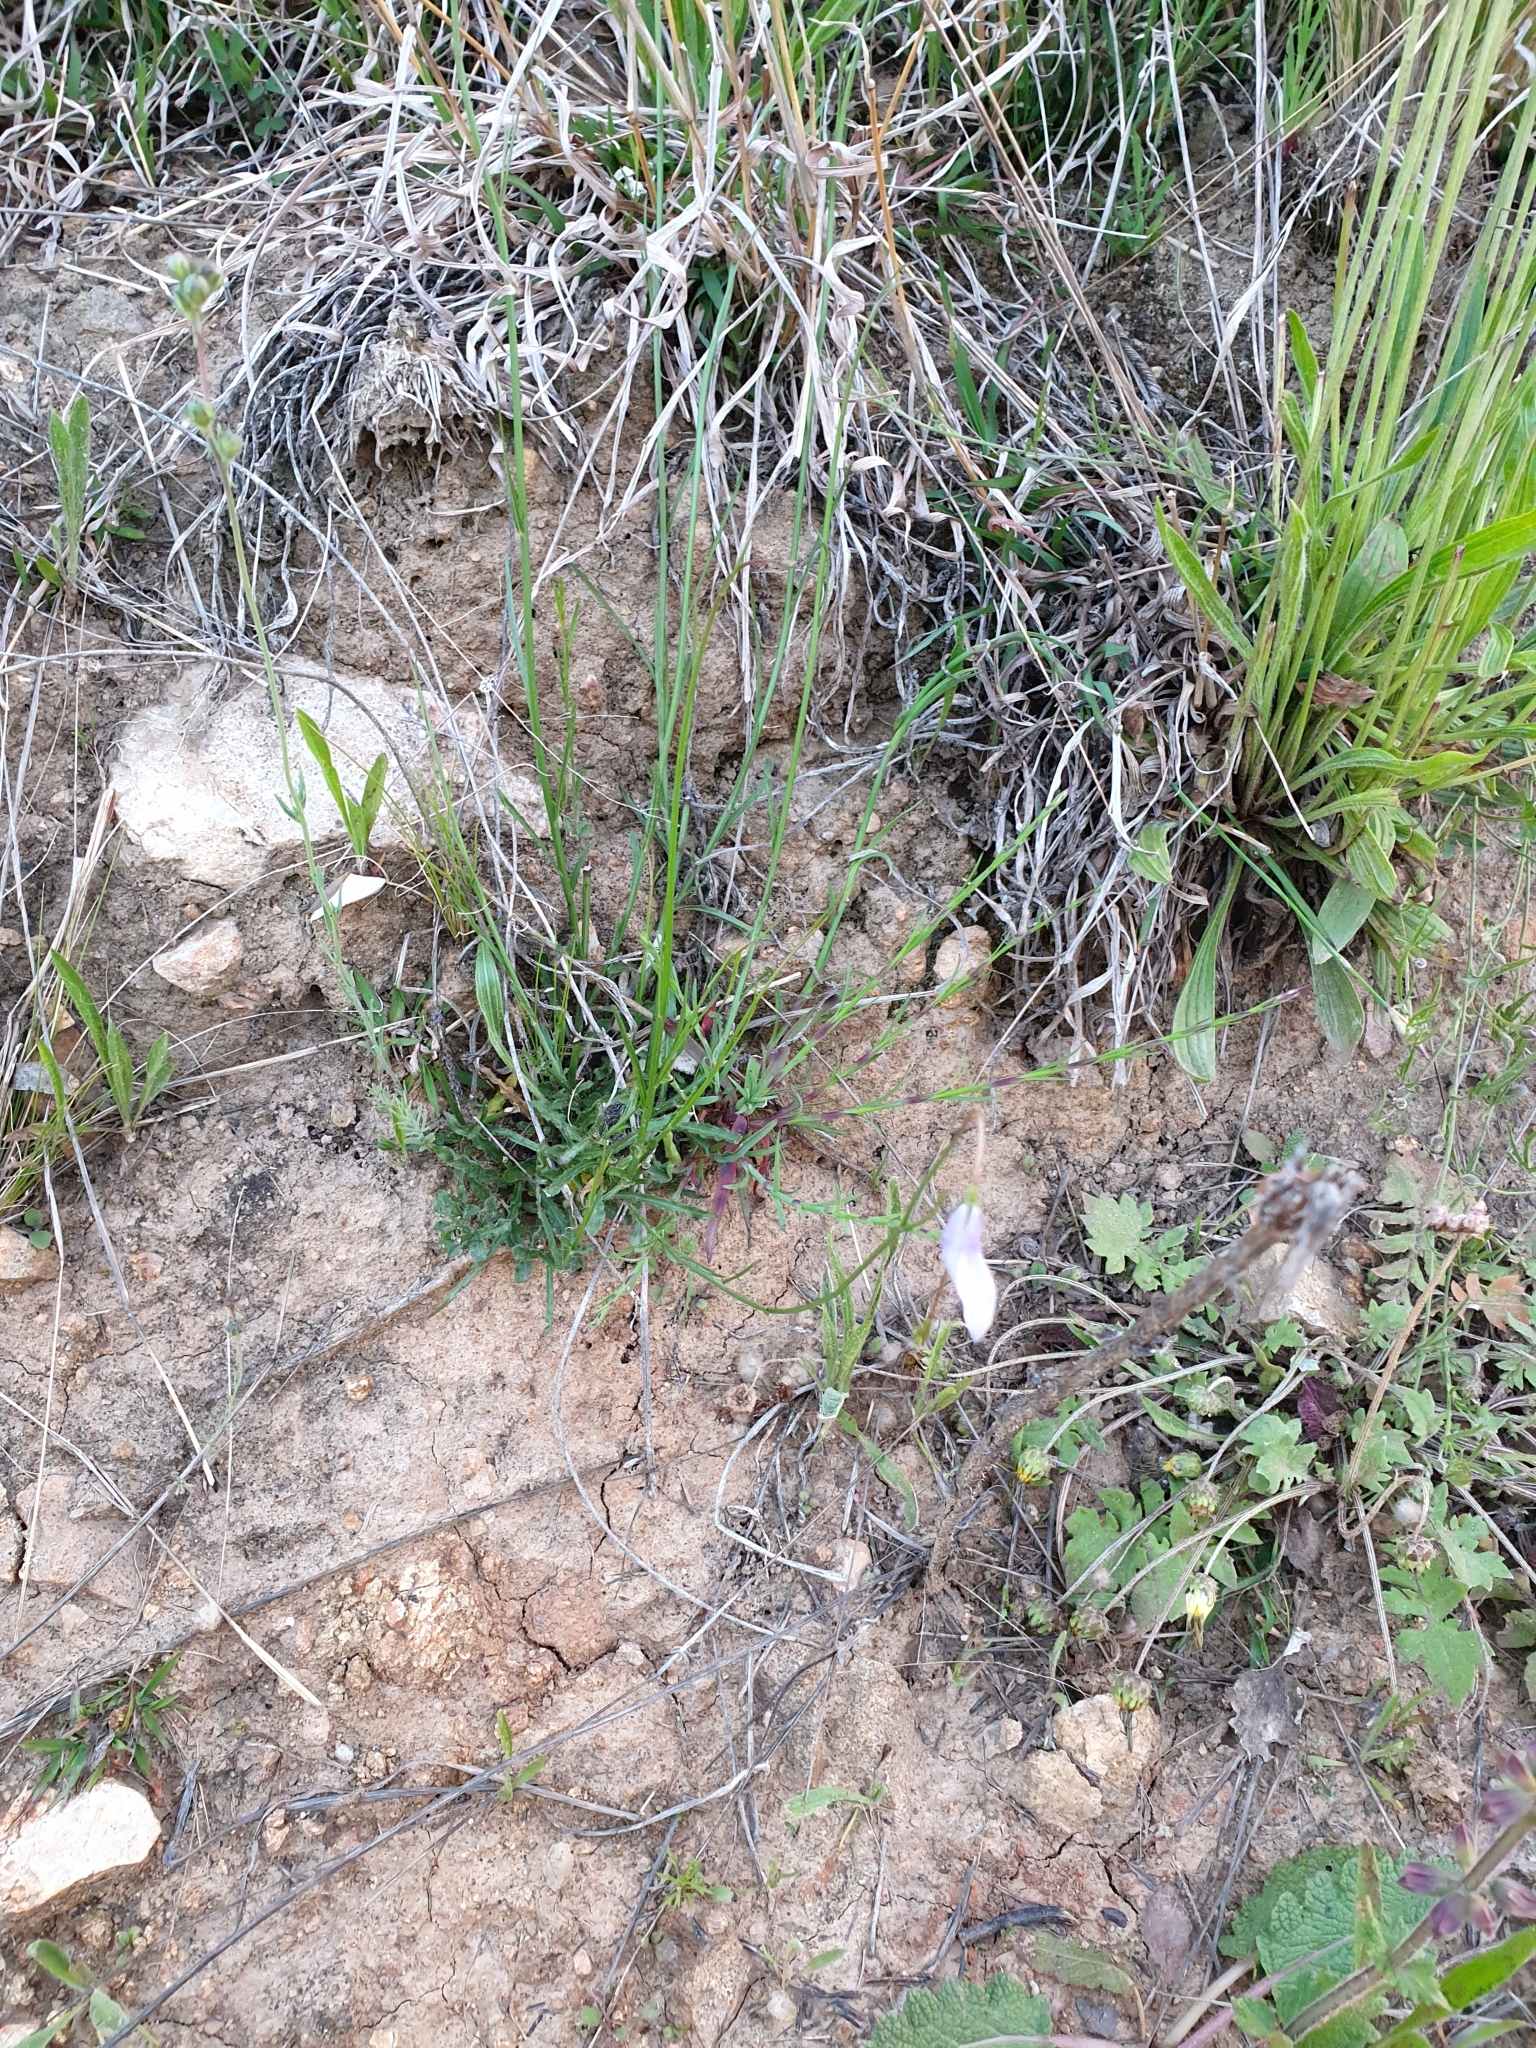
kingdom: Plantae
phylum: Tracheophyta
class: Magnoliopsida
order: Asterales
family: Campanulaceae
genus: Wahlenbergia
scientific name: Wahlenbergia
